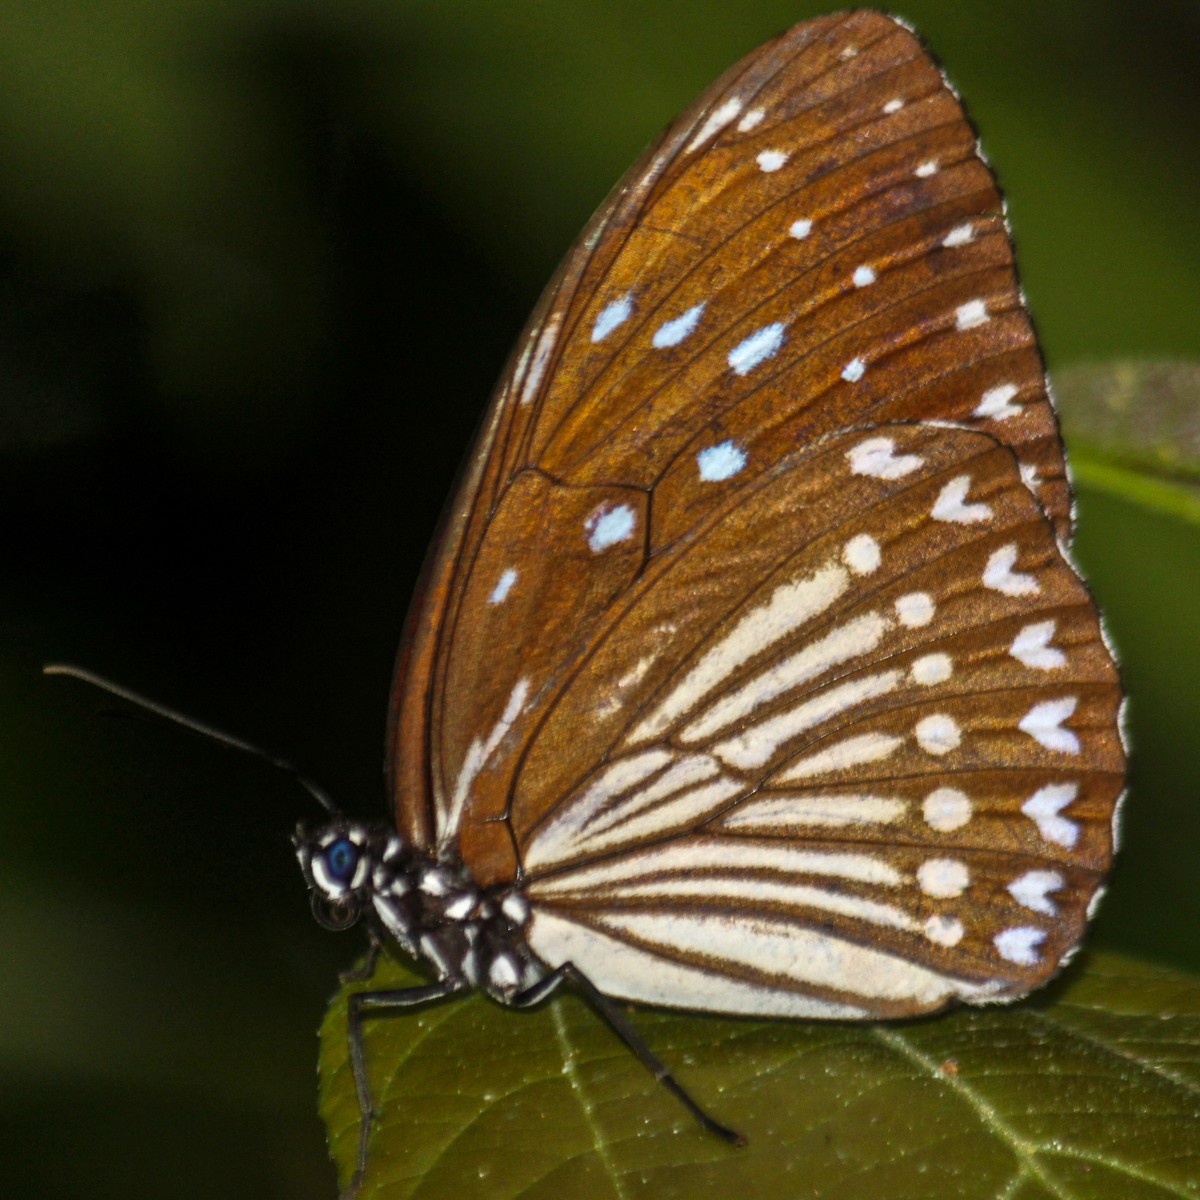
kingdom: Animalia
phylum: Arthropoda
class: Insecta
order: Lepidoptera
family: Nymphalidae
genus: Penthema
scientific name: Penthema darlisa
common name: Three-coloured kaiser
